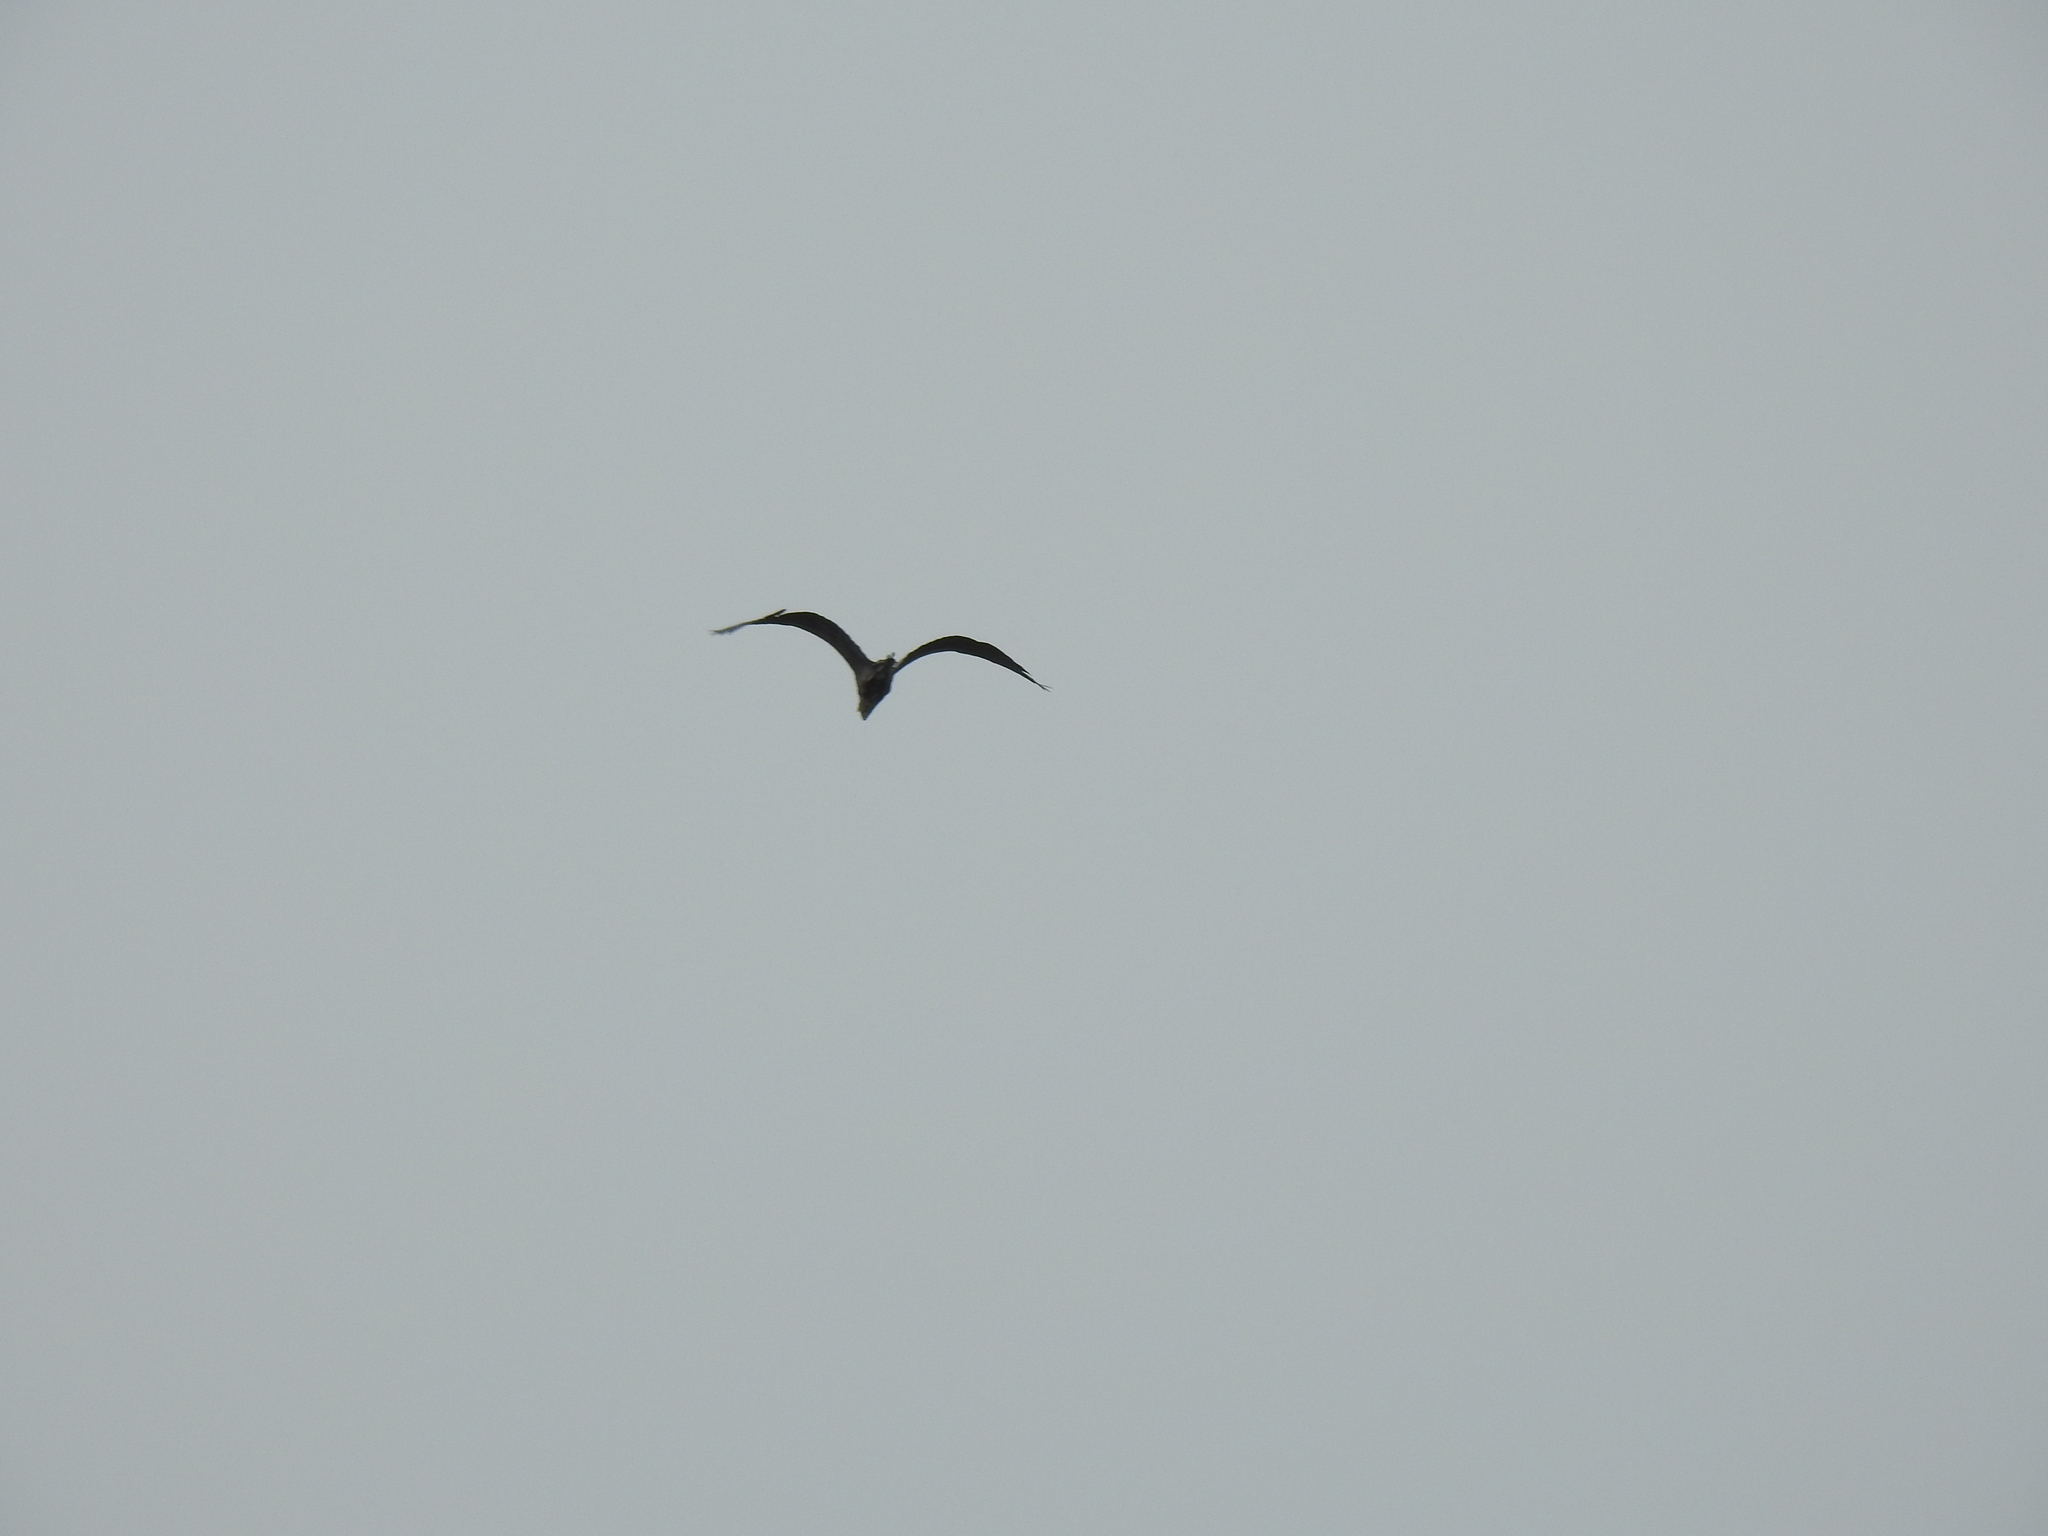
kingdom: Animalia
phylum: Chordata
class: Aves
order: Pelecaniformes
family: Ardeidae
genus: Ardea
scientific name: Ardea herodias
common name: Great blue heron
